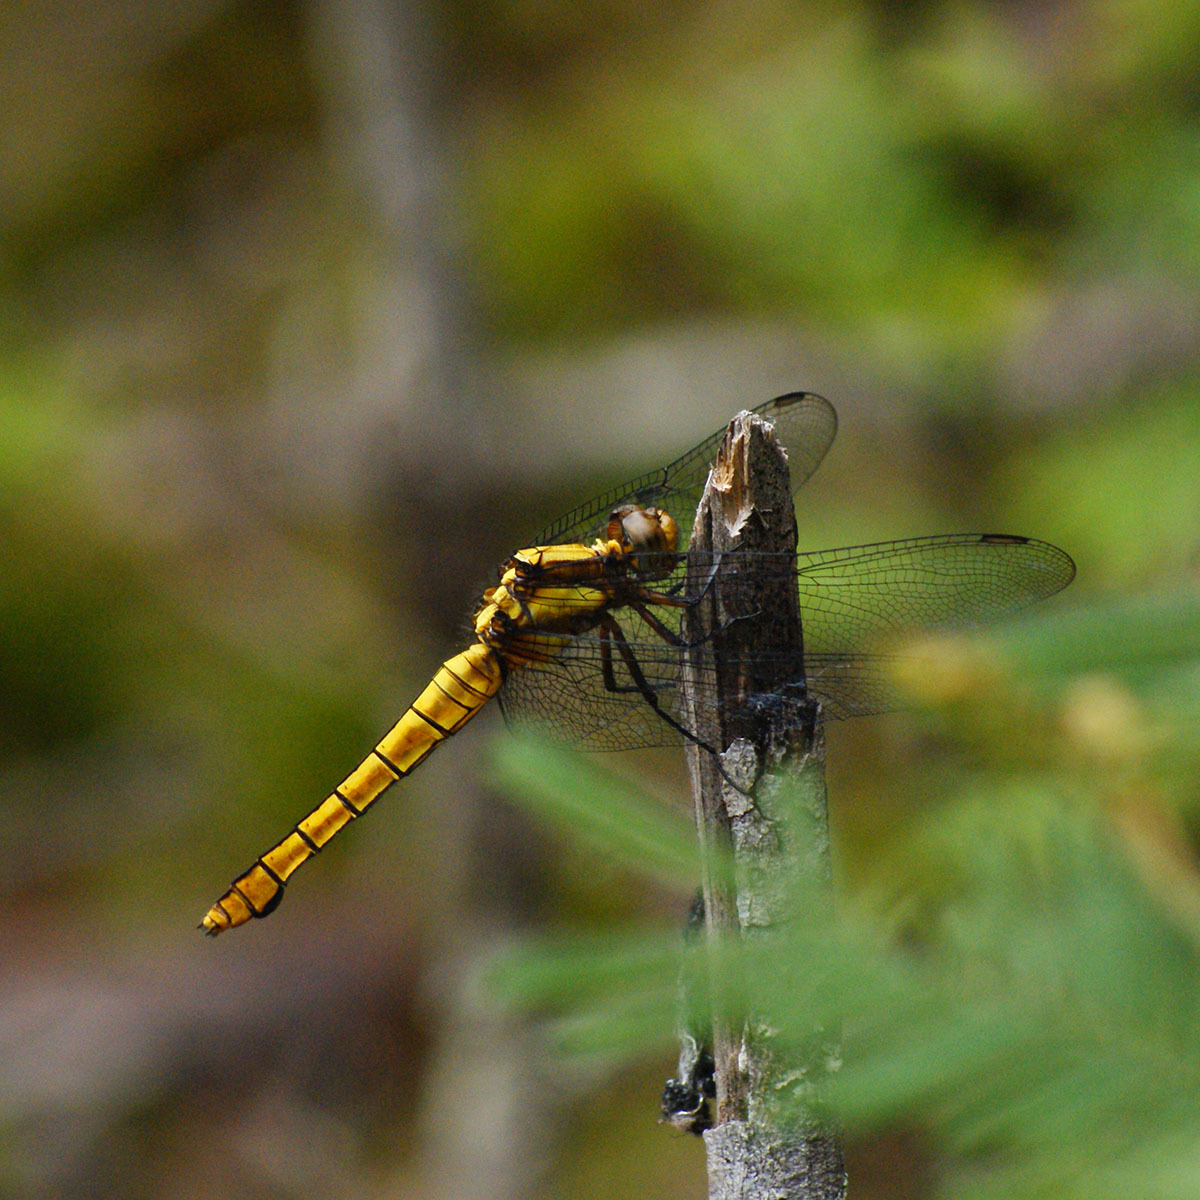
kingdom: Animalia
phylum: Arthropoda
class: Insecta
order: Odonata
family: Libellulidae
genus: Orthetrum
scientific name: Orthetrum triangulare
